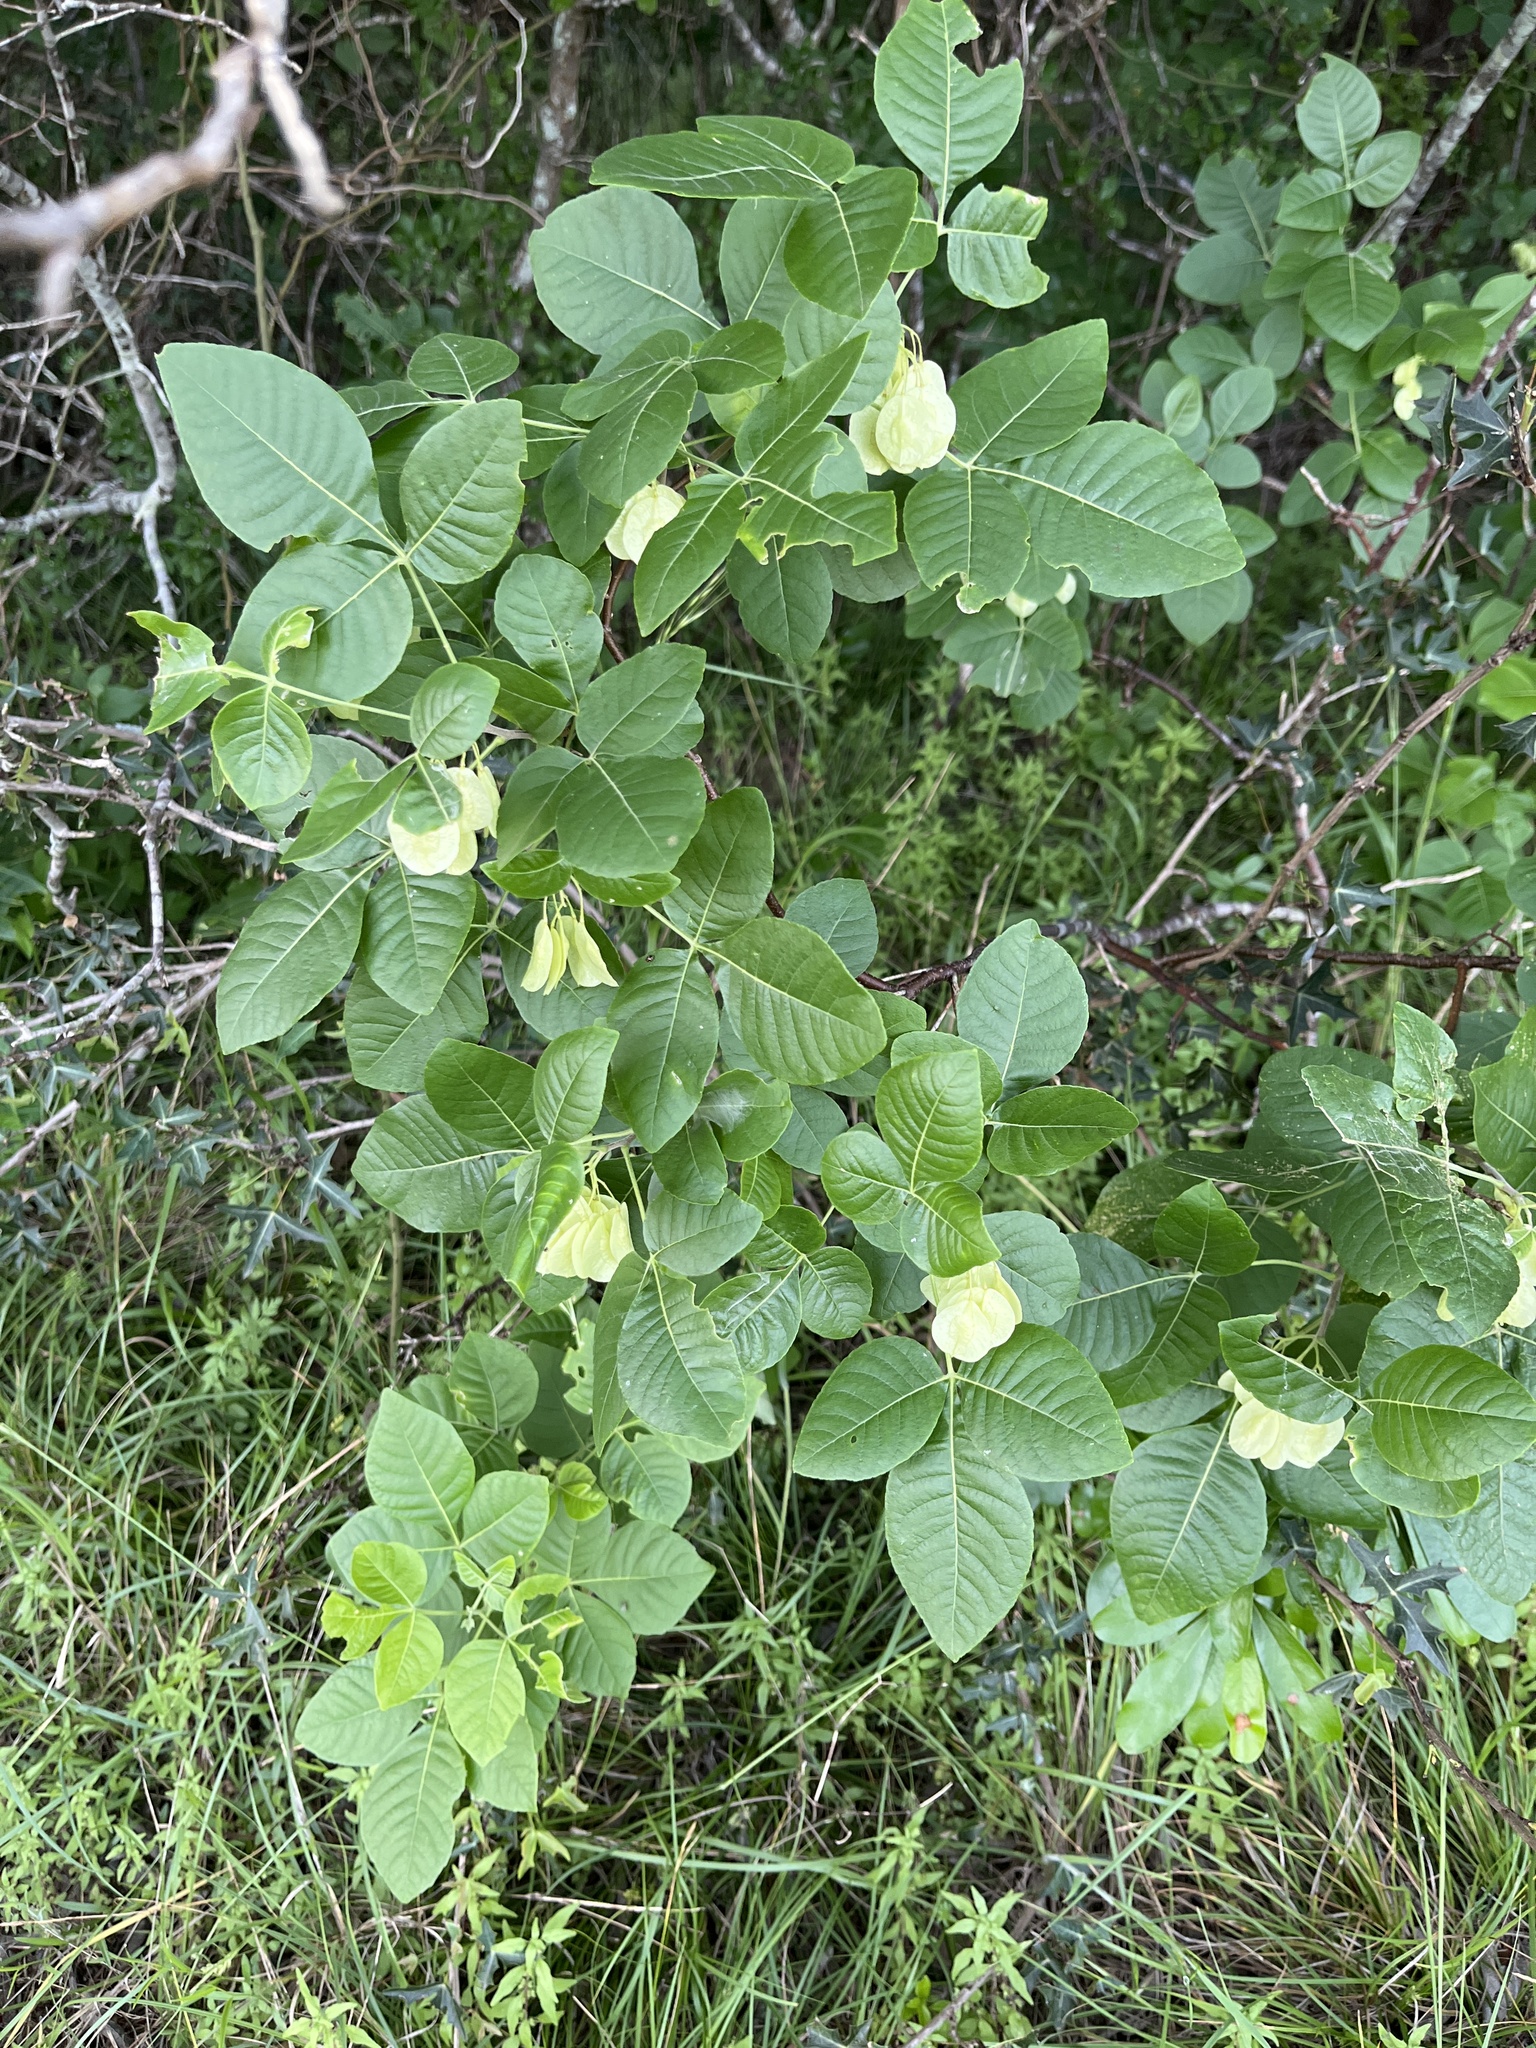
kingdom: Plantae
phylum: Tracheophyta
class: Magnoliopsida
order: Sapindales
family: Rutaceae
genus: Ptelea
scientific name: Ptelea trifoliata
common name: Common hop-tree
